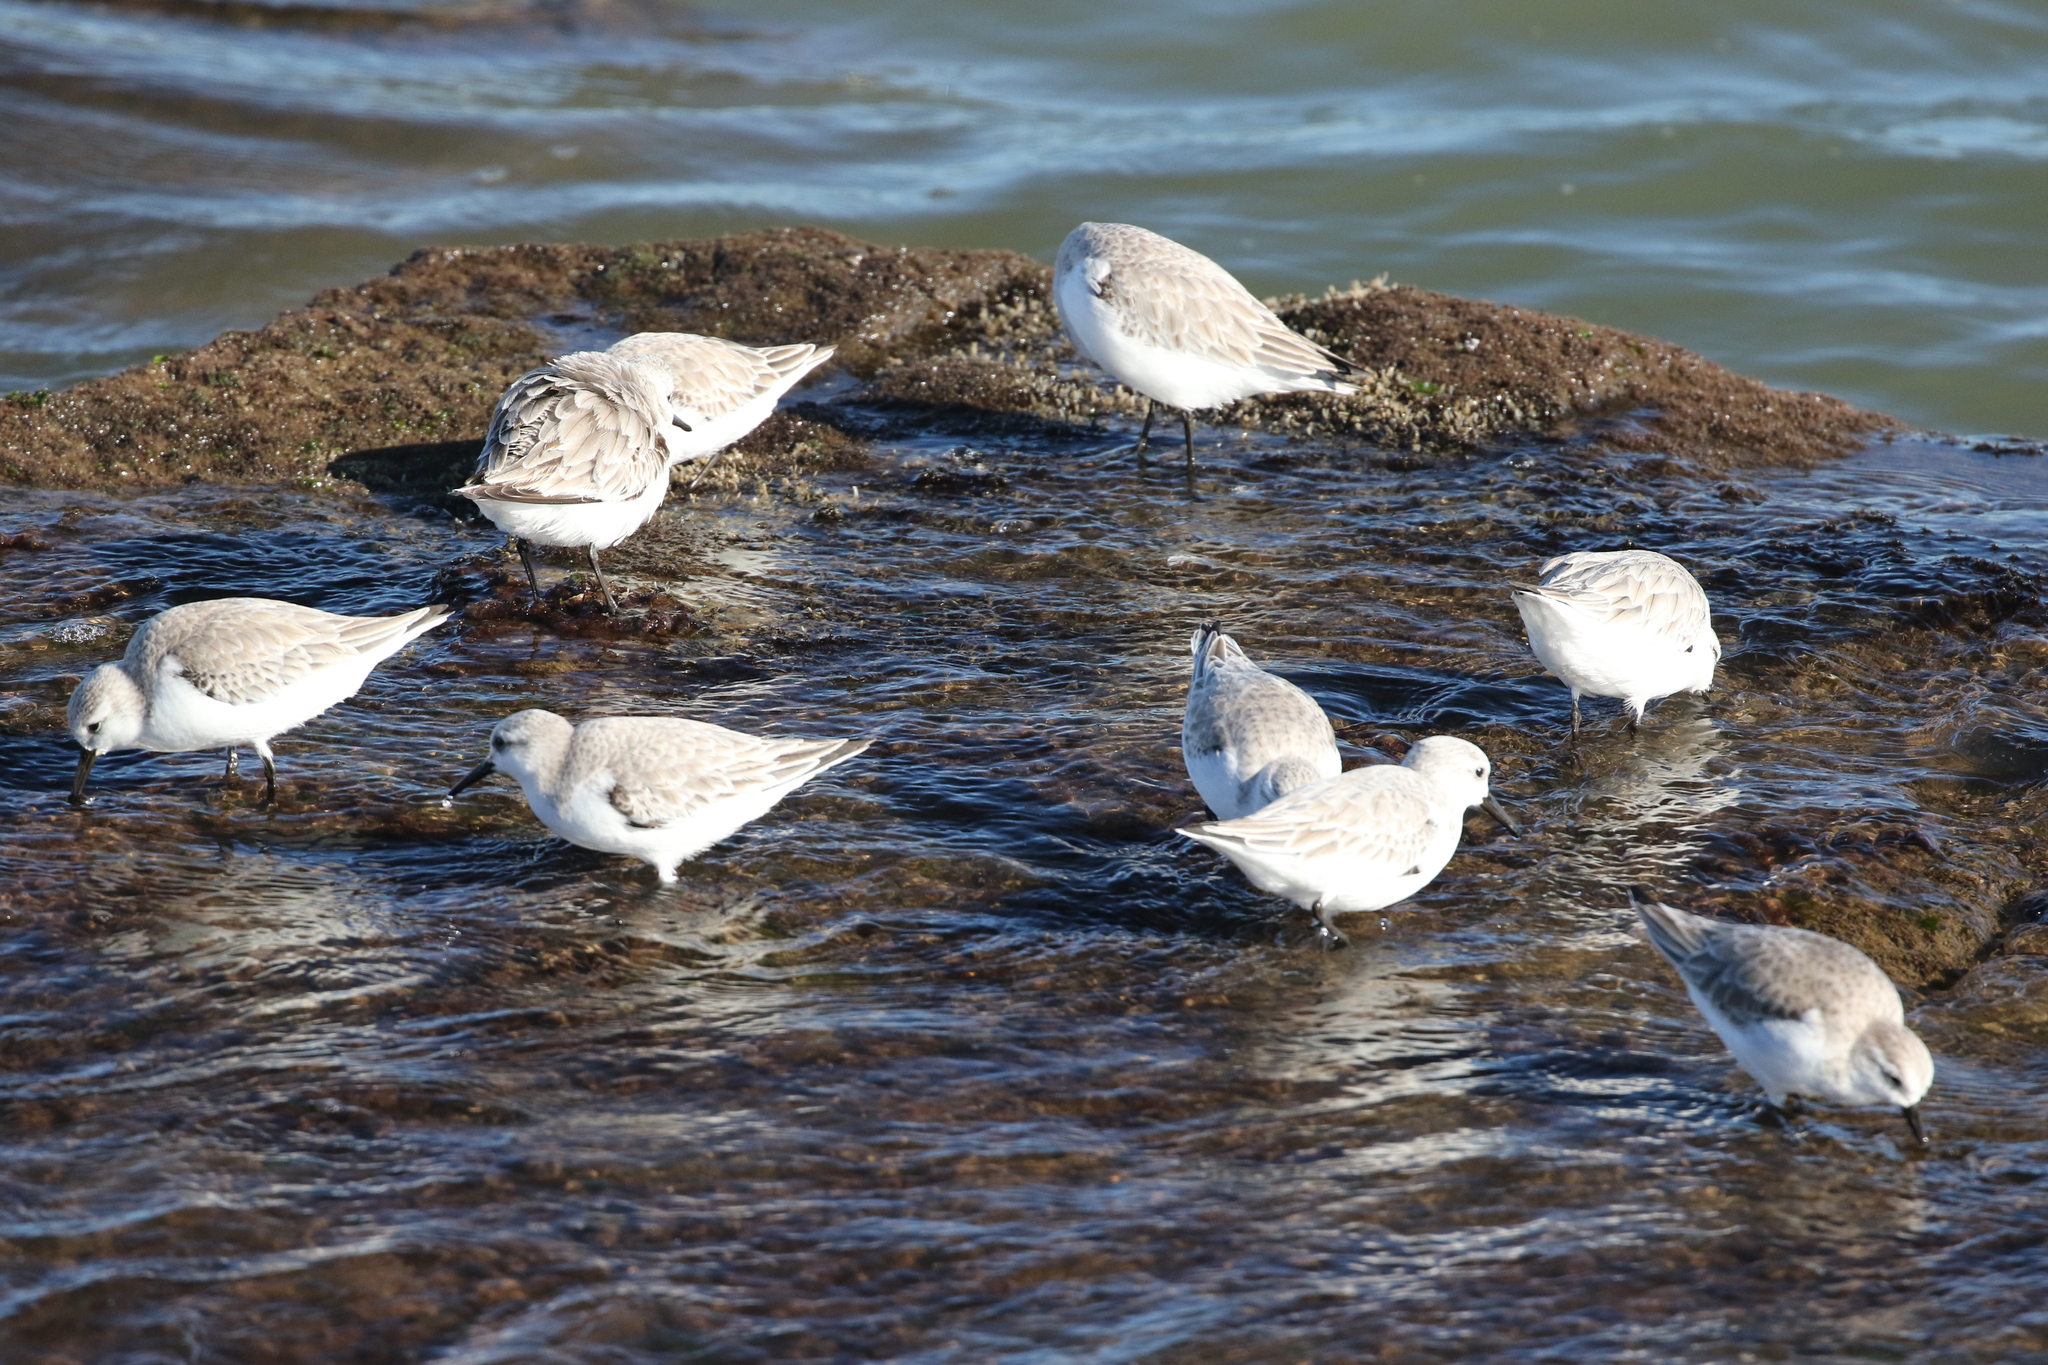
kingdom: Animalia
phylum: Chordata
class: Aves
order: Charadriiformes
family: Scolopacidae
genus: Calidris
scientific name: Calidris alba
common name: Sanderling
